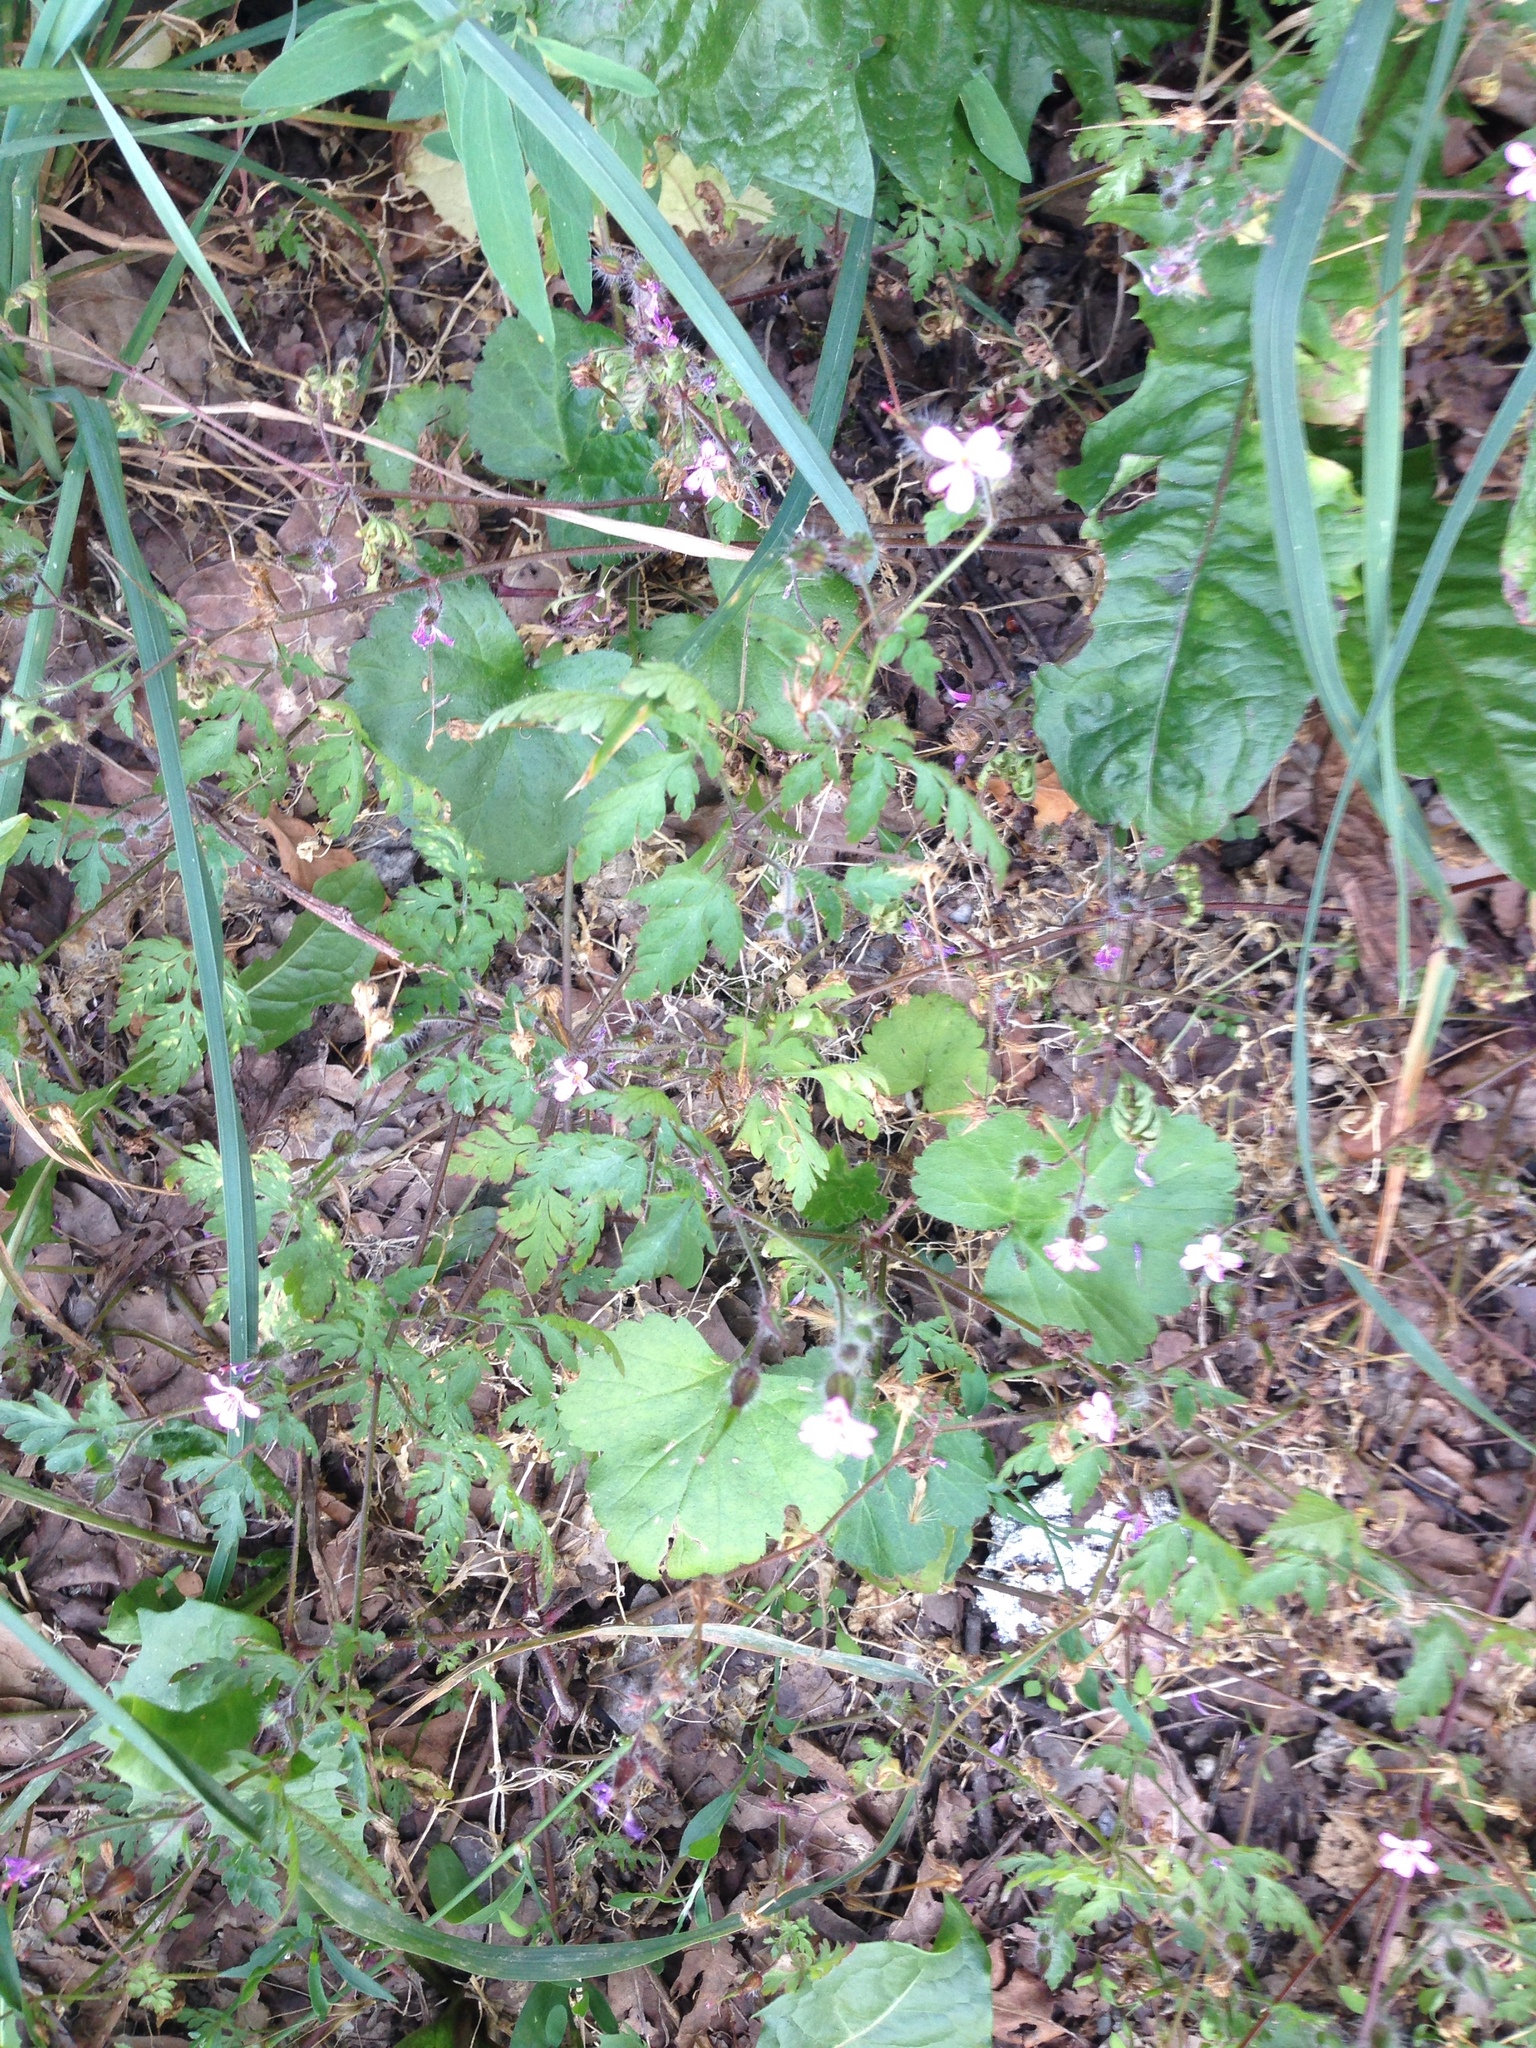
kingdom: Plantae
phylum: Tracheophyta
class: Magnoliopsida
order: Geraniales
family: Geraniaceae
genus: Geranium
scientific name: Geranium robertianum
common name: Herb-robert
